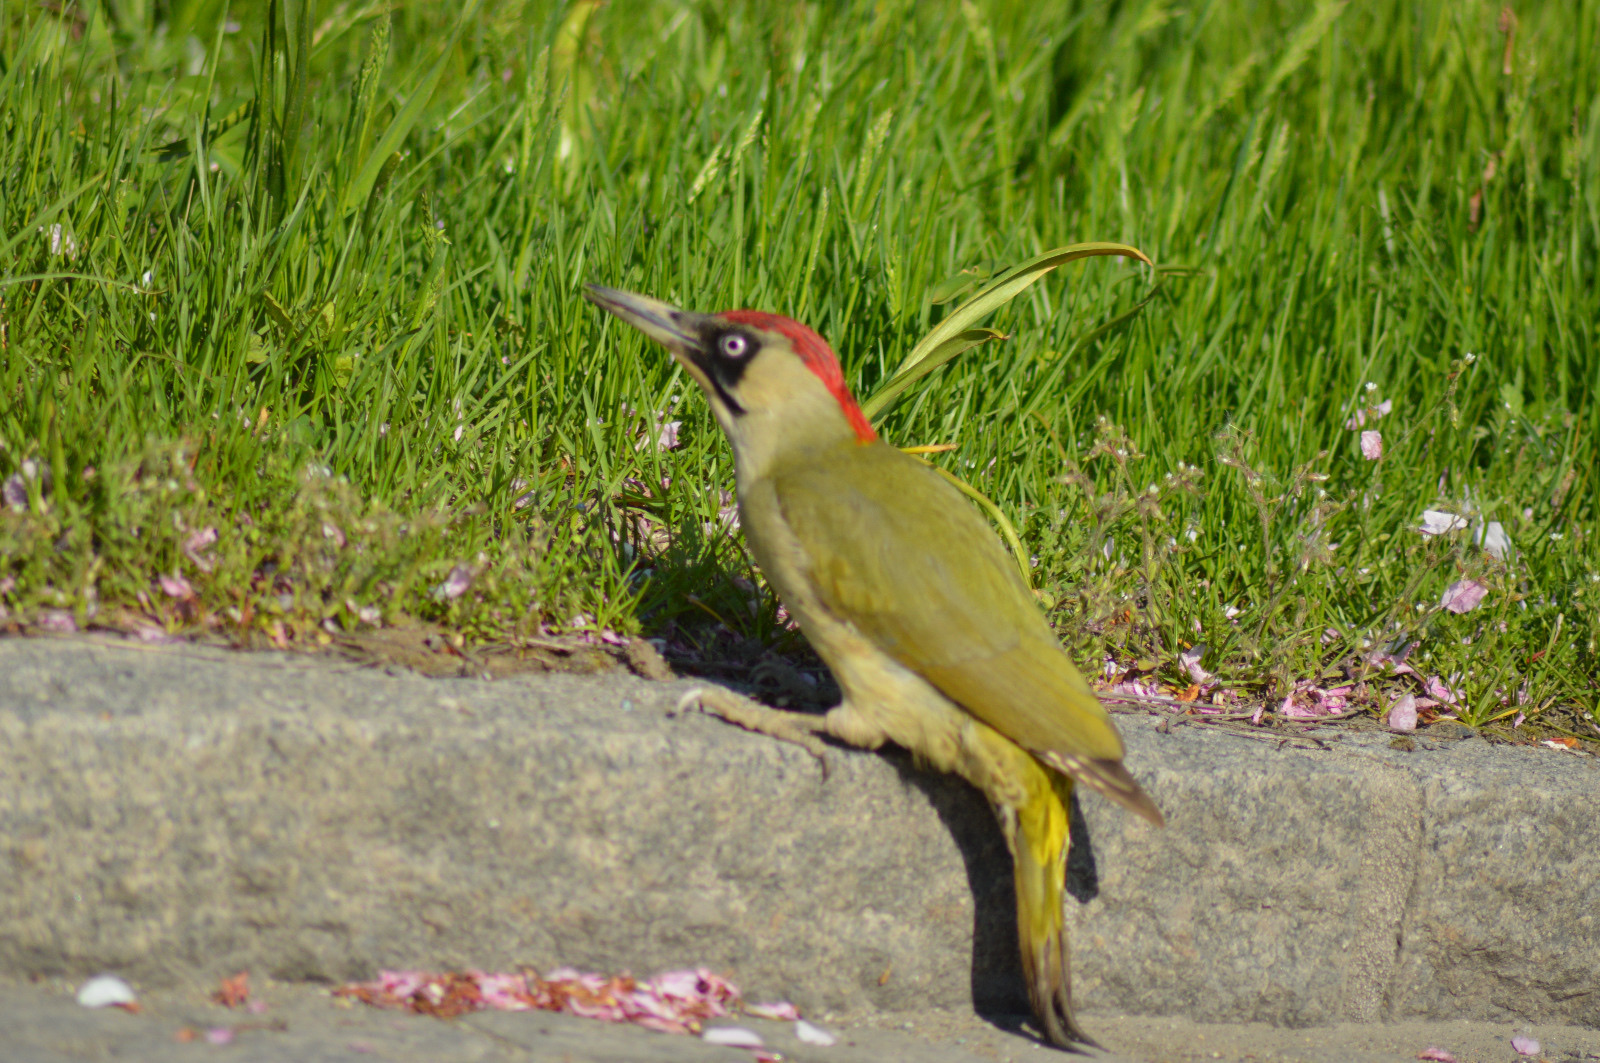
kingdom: Animalia
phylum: Chordata
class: Aves
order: Piciformes
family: Picidae
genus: Picus
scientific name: Picus viridis
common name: European green woodpecker
